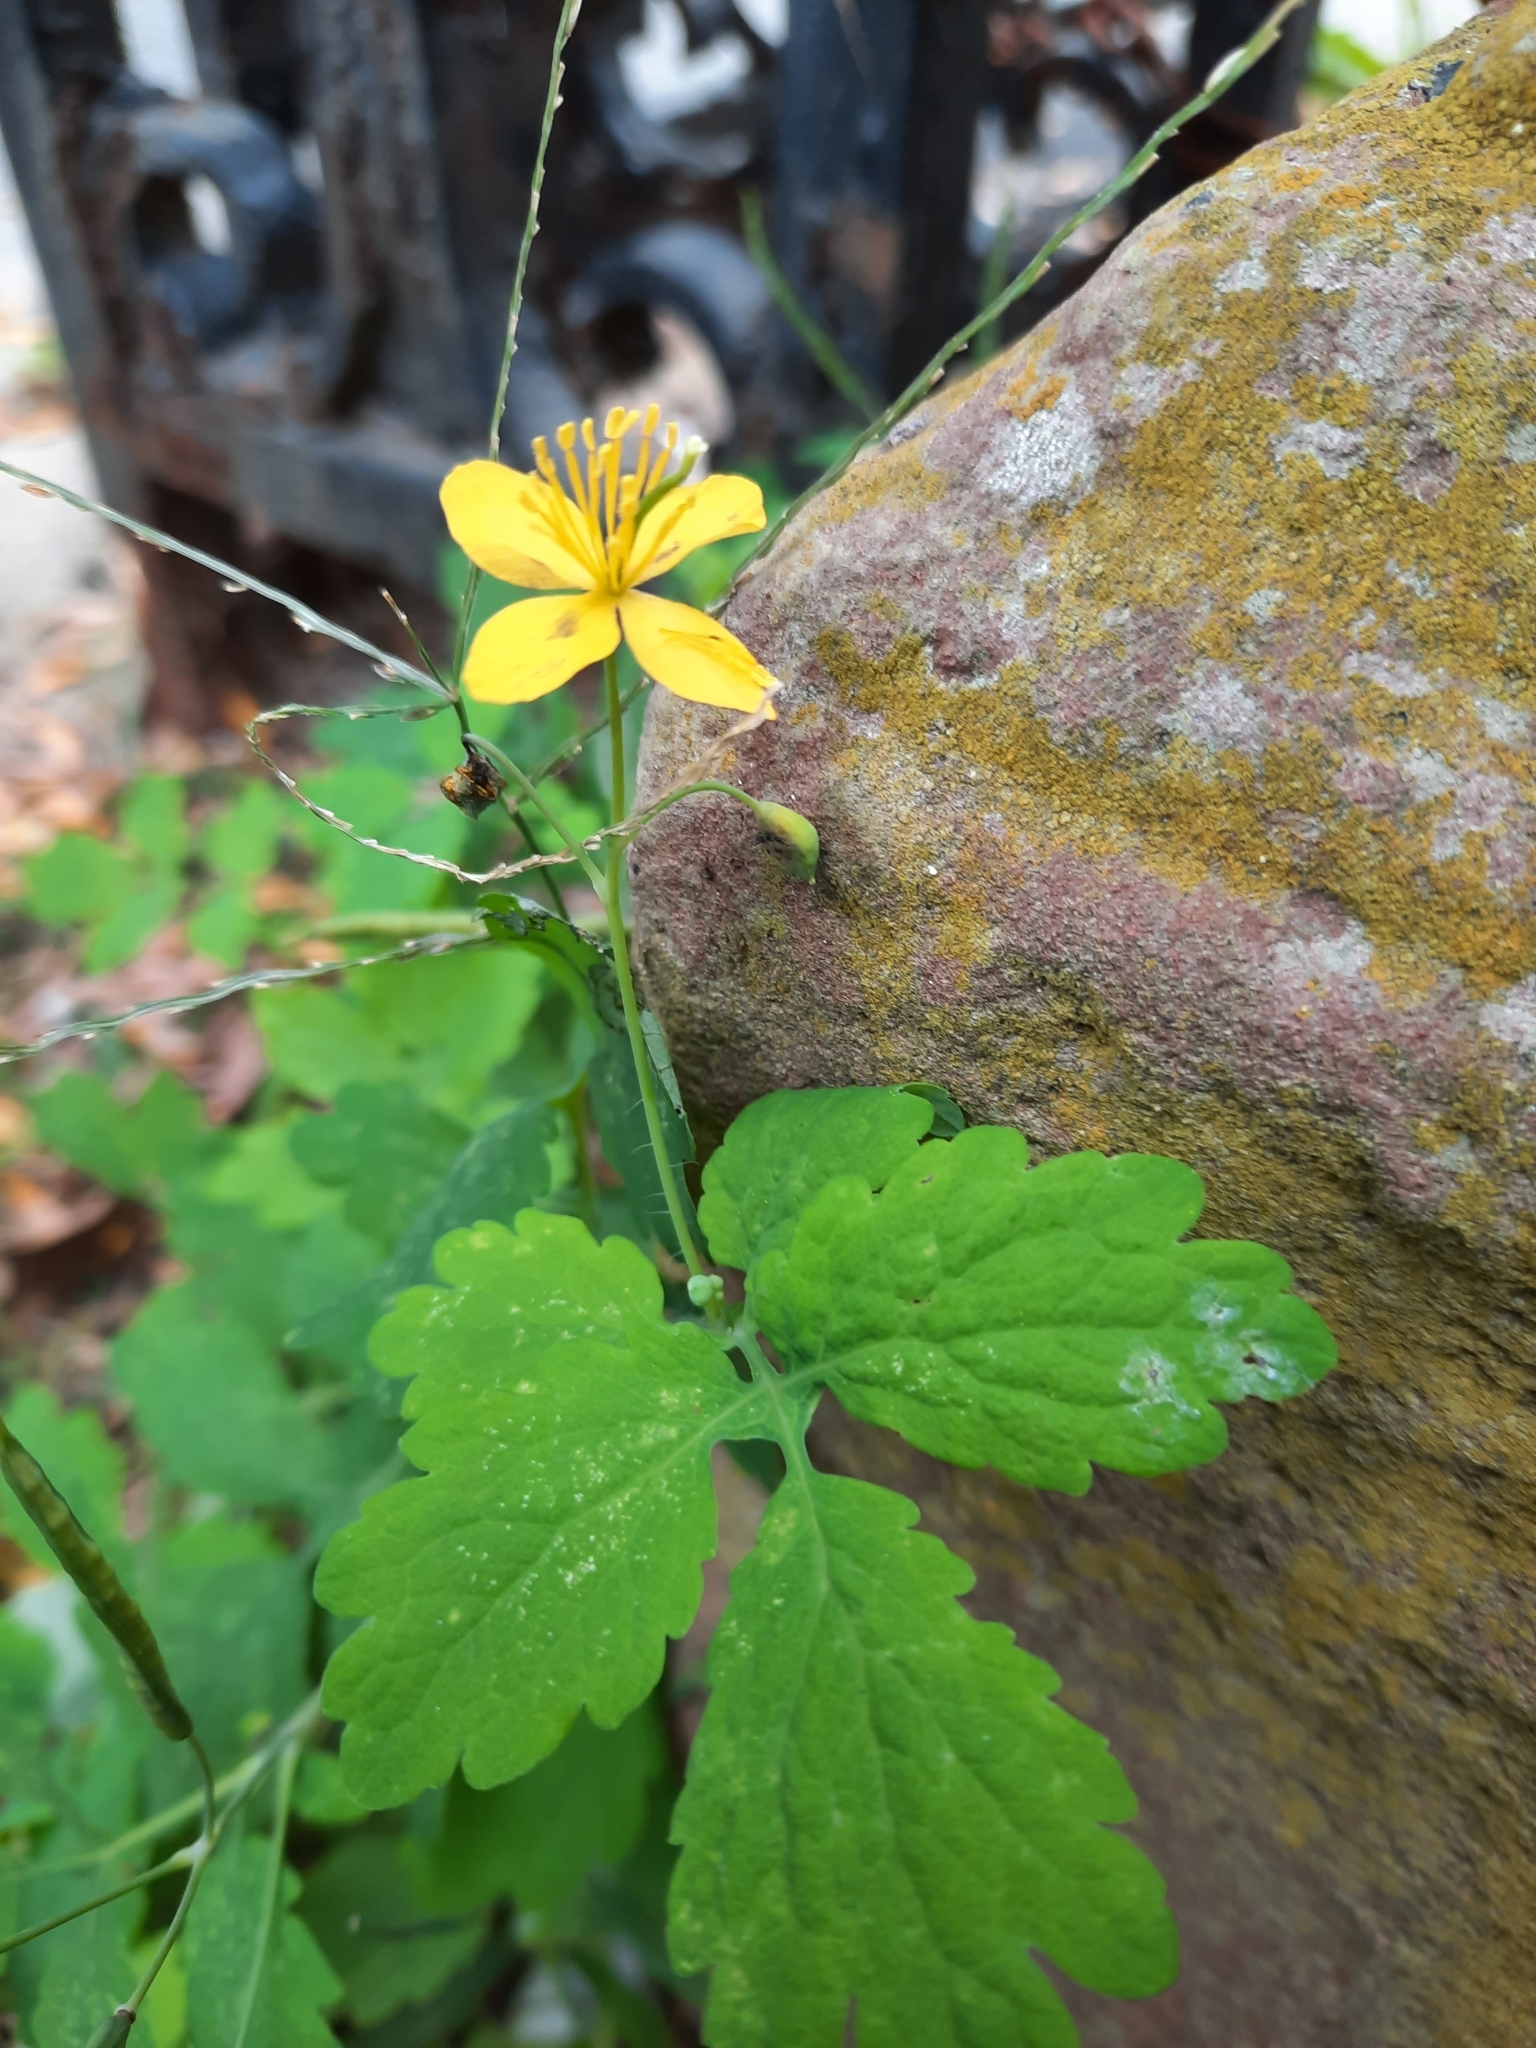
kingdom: Plantae
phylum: Tracheophyta
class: Magnoliopsida
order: Ranunculales
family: Papaveraceae
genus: Chelidonium
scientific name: Chelidonium majus
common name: Greater celandine
